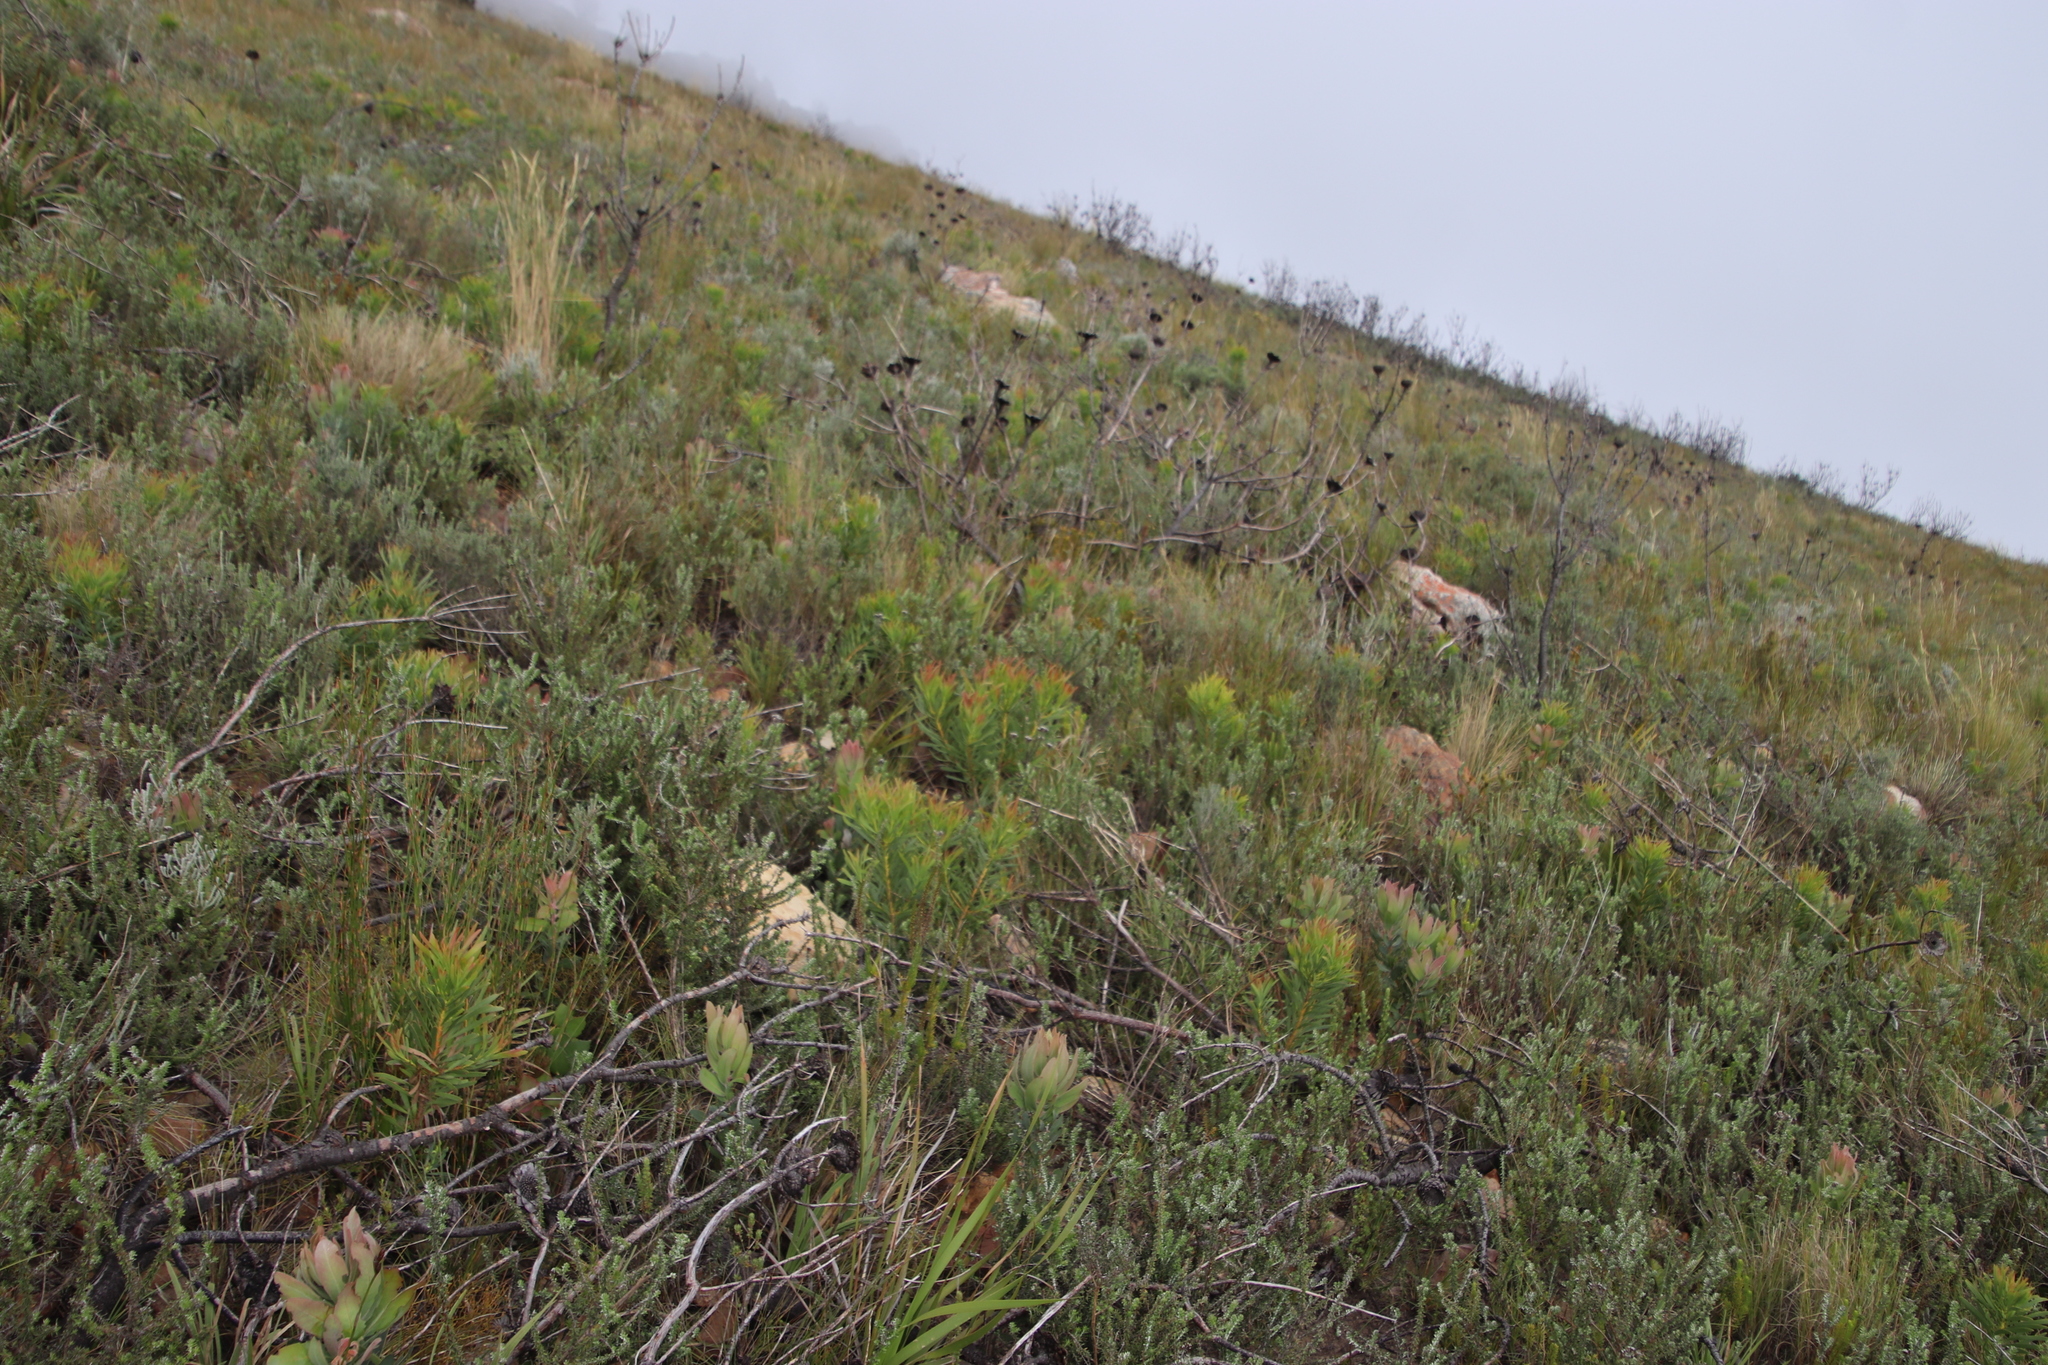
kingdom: Plantae
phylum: Tracheophyta
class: Magnoliopsida
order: Proteales
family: Proteaceae
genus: Protea
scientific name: Protea repens
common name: Sugarbush
